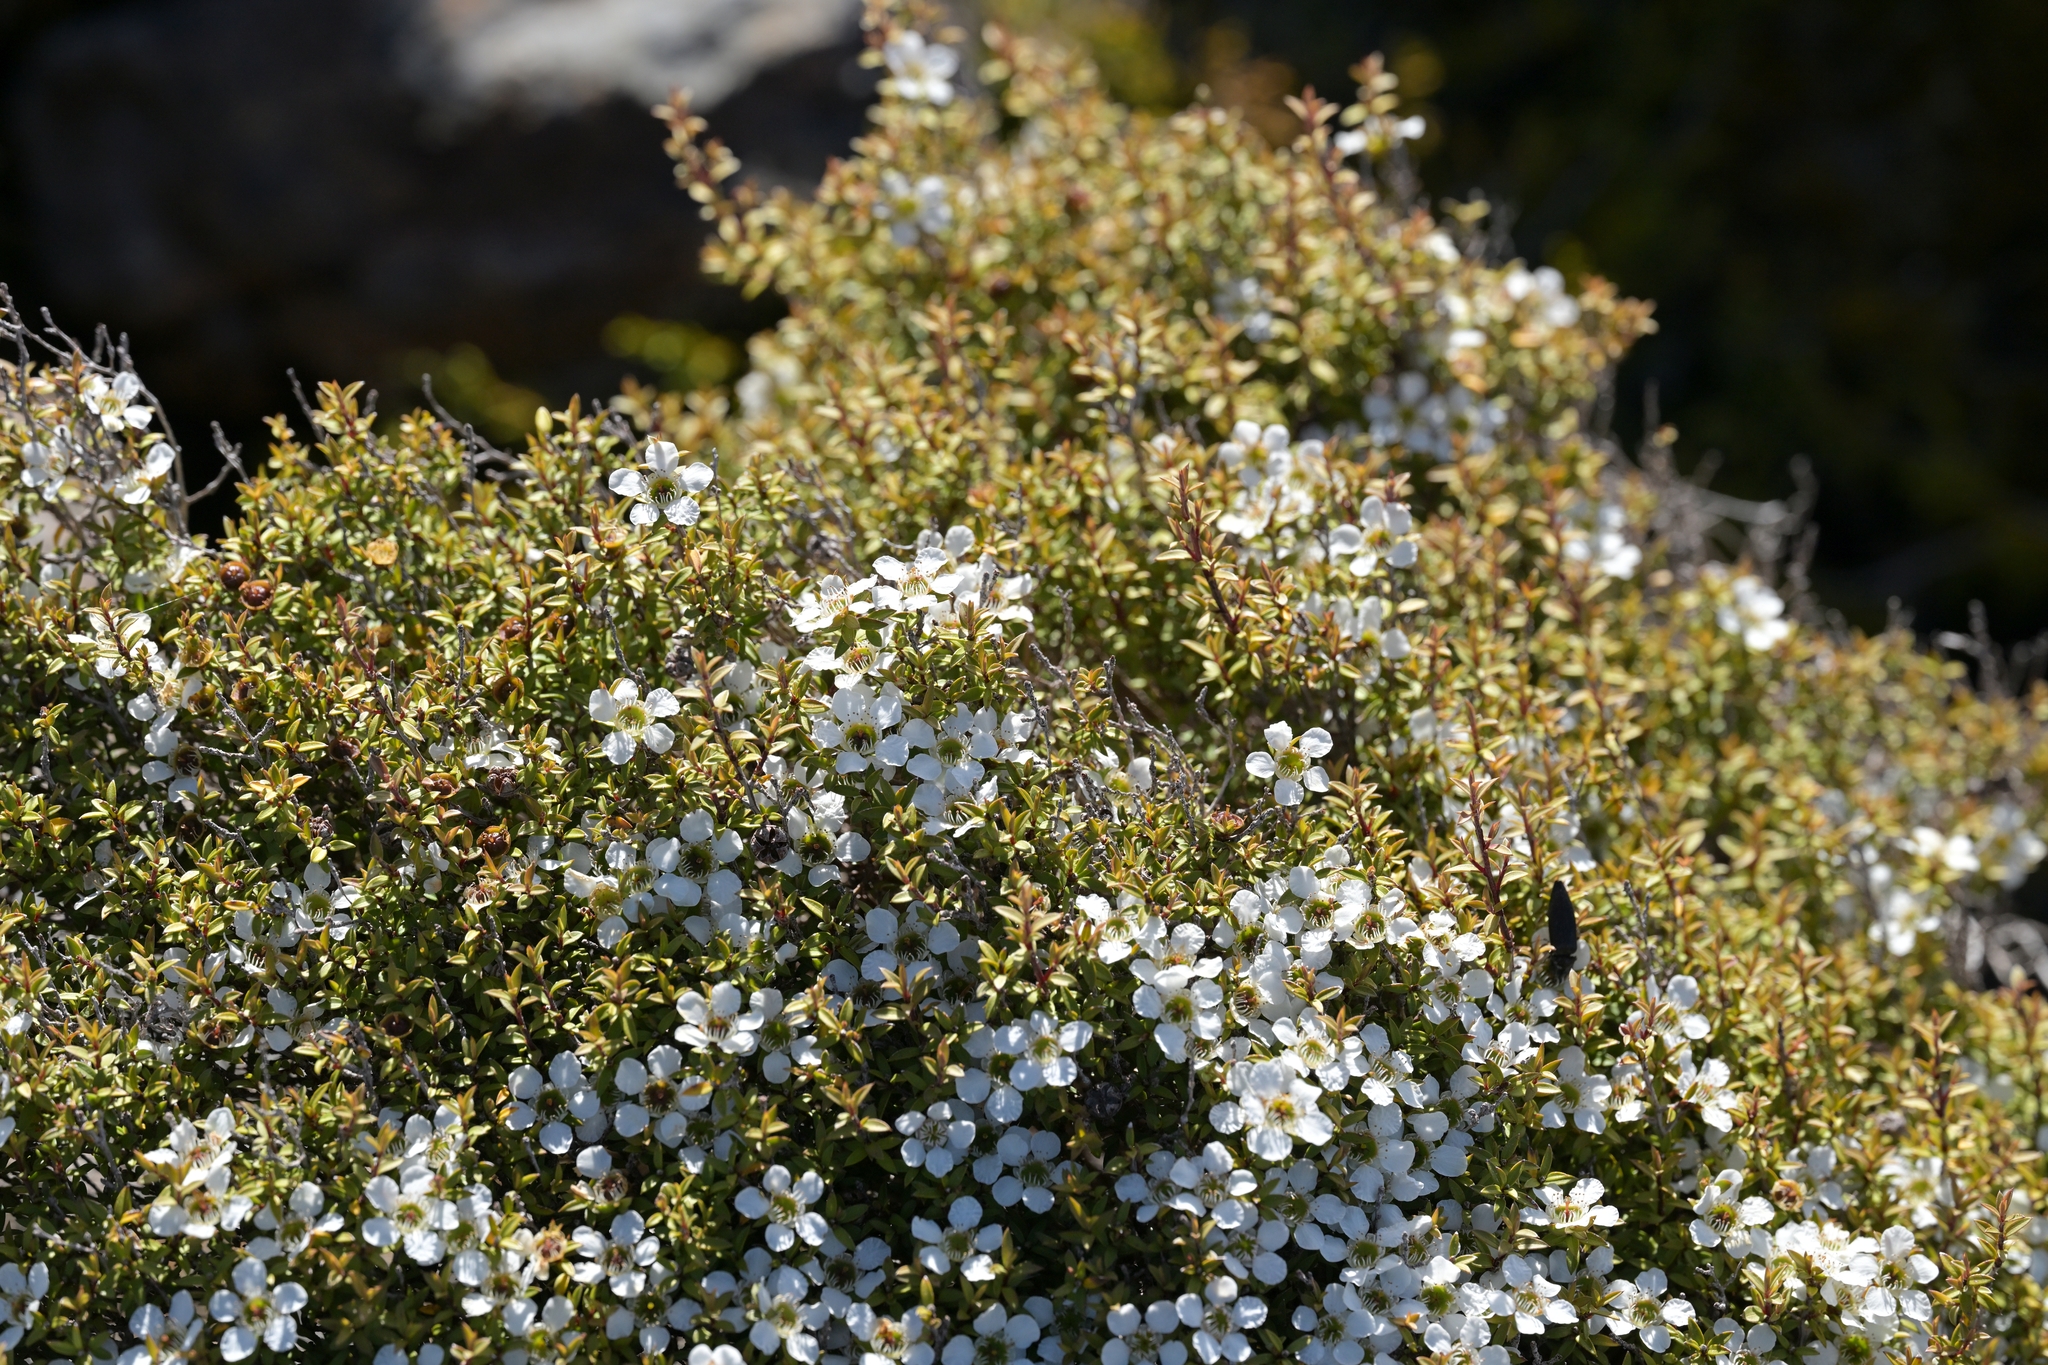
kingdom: Plantae
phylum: Tracheophyta
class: Magnoliopsida
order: Myrtales
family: Myrtaceae
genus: Leptospermum
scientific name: Leptospermum scoparium
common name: Broom tea-tree
